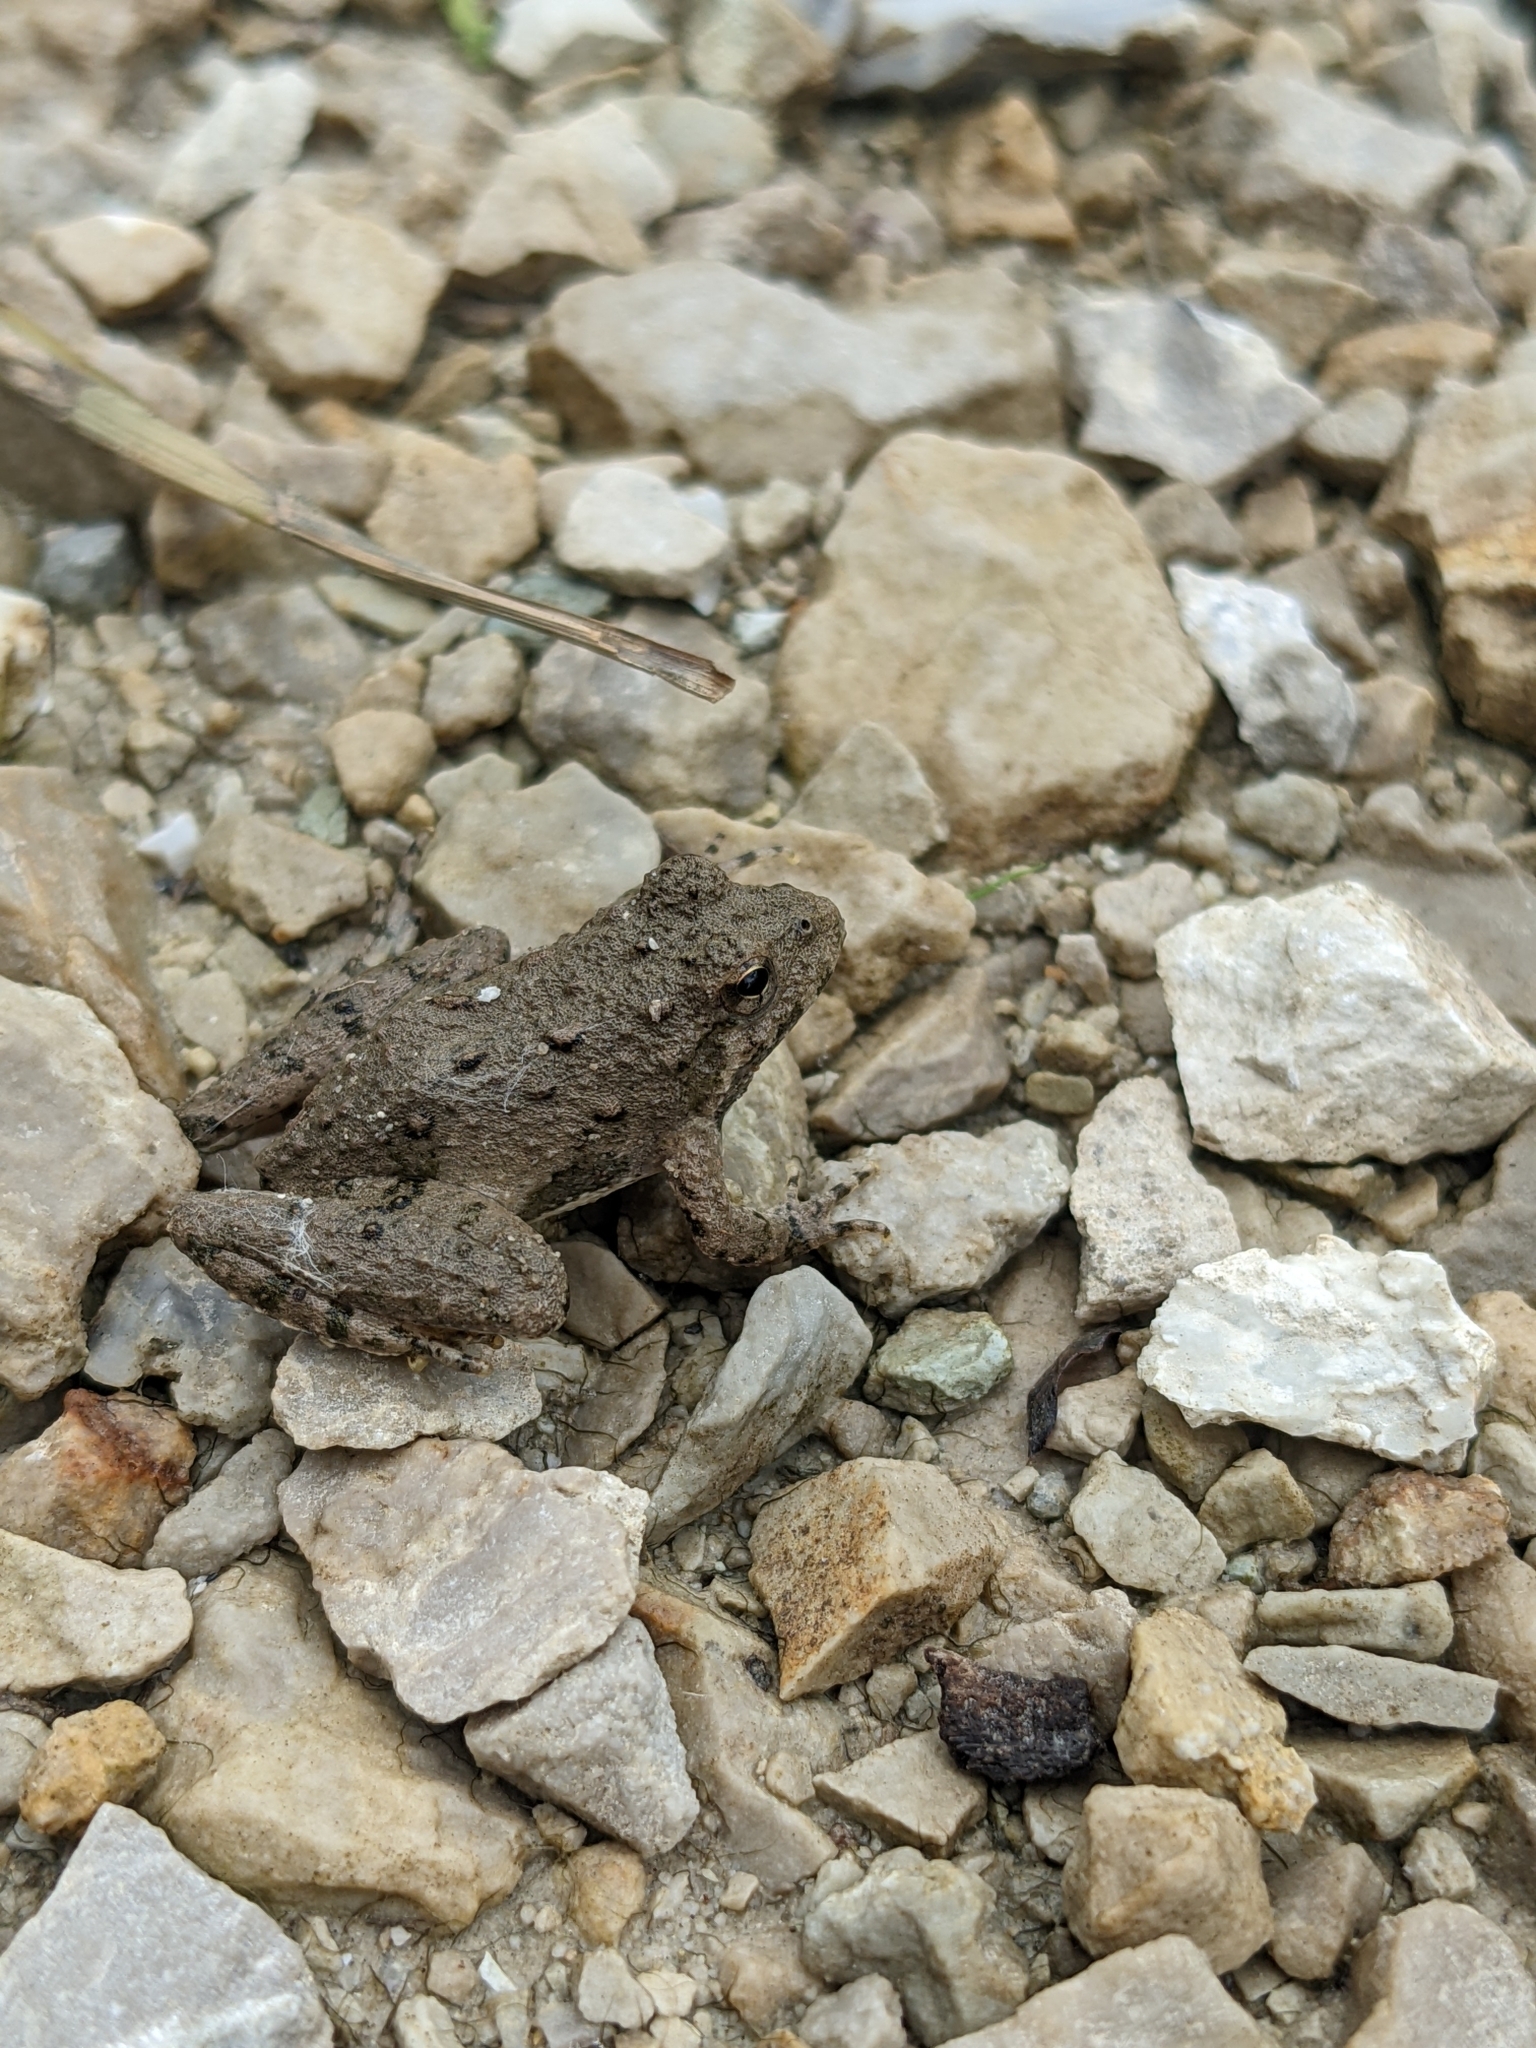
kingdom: Animalia
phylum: Chordata
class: Amphibia
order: Anura
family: Hylidae
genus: Acris
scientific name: Acris blanchardi
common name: Blanchard's cricket frog
